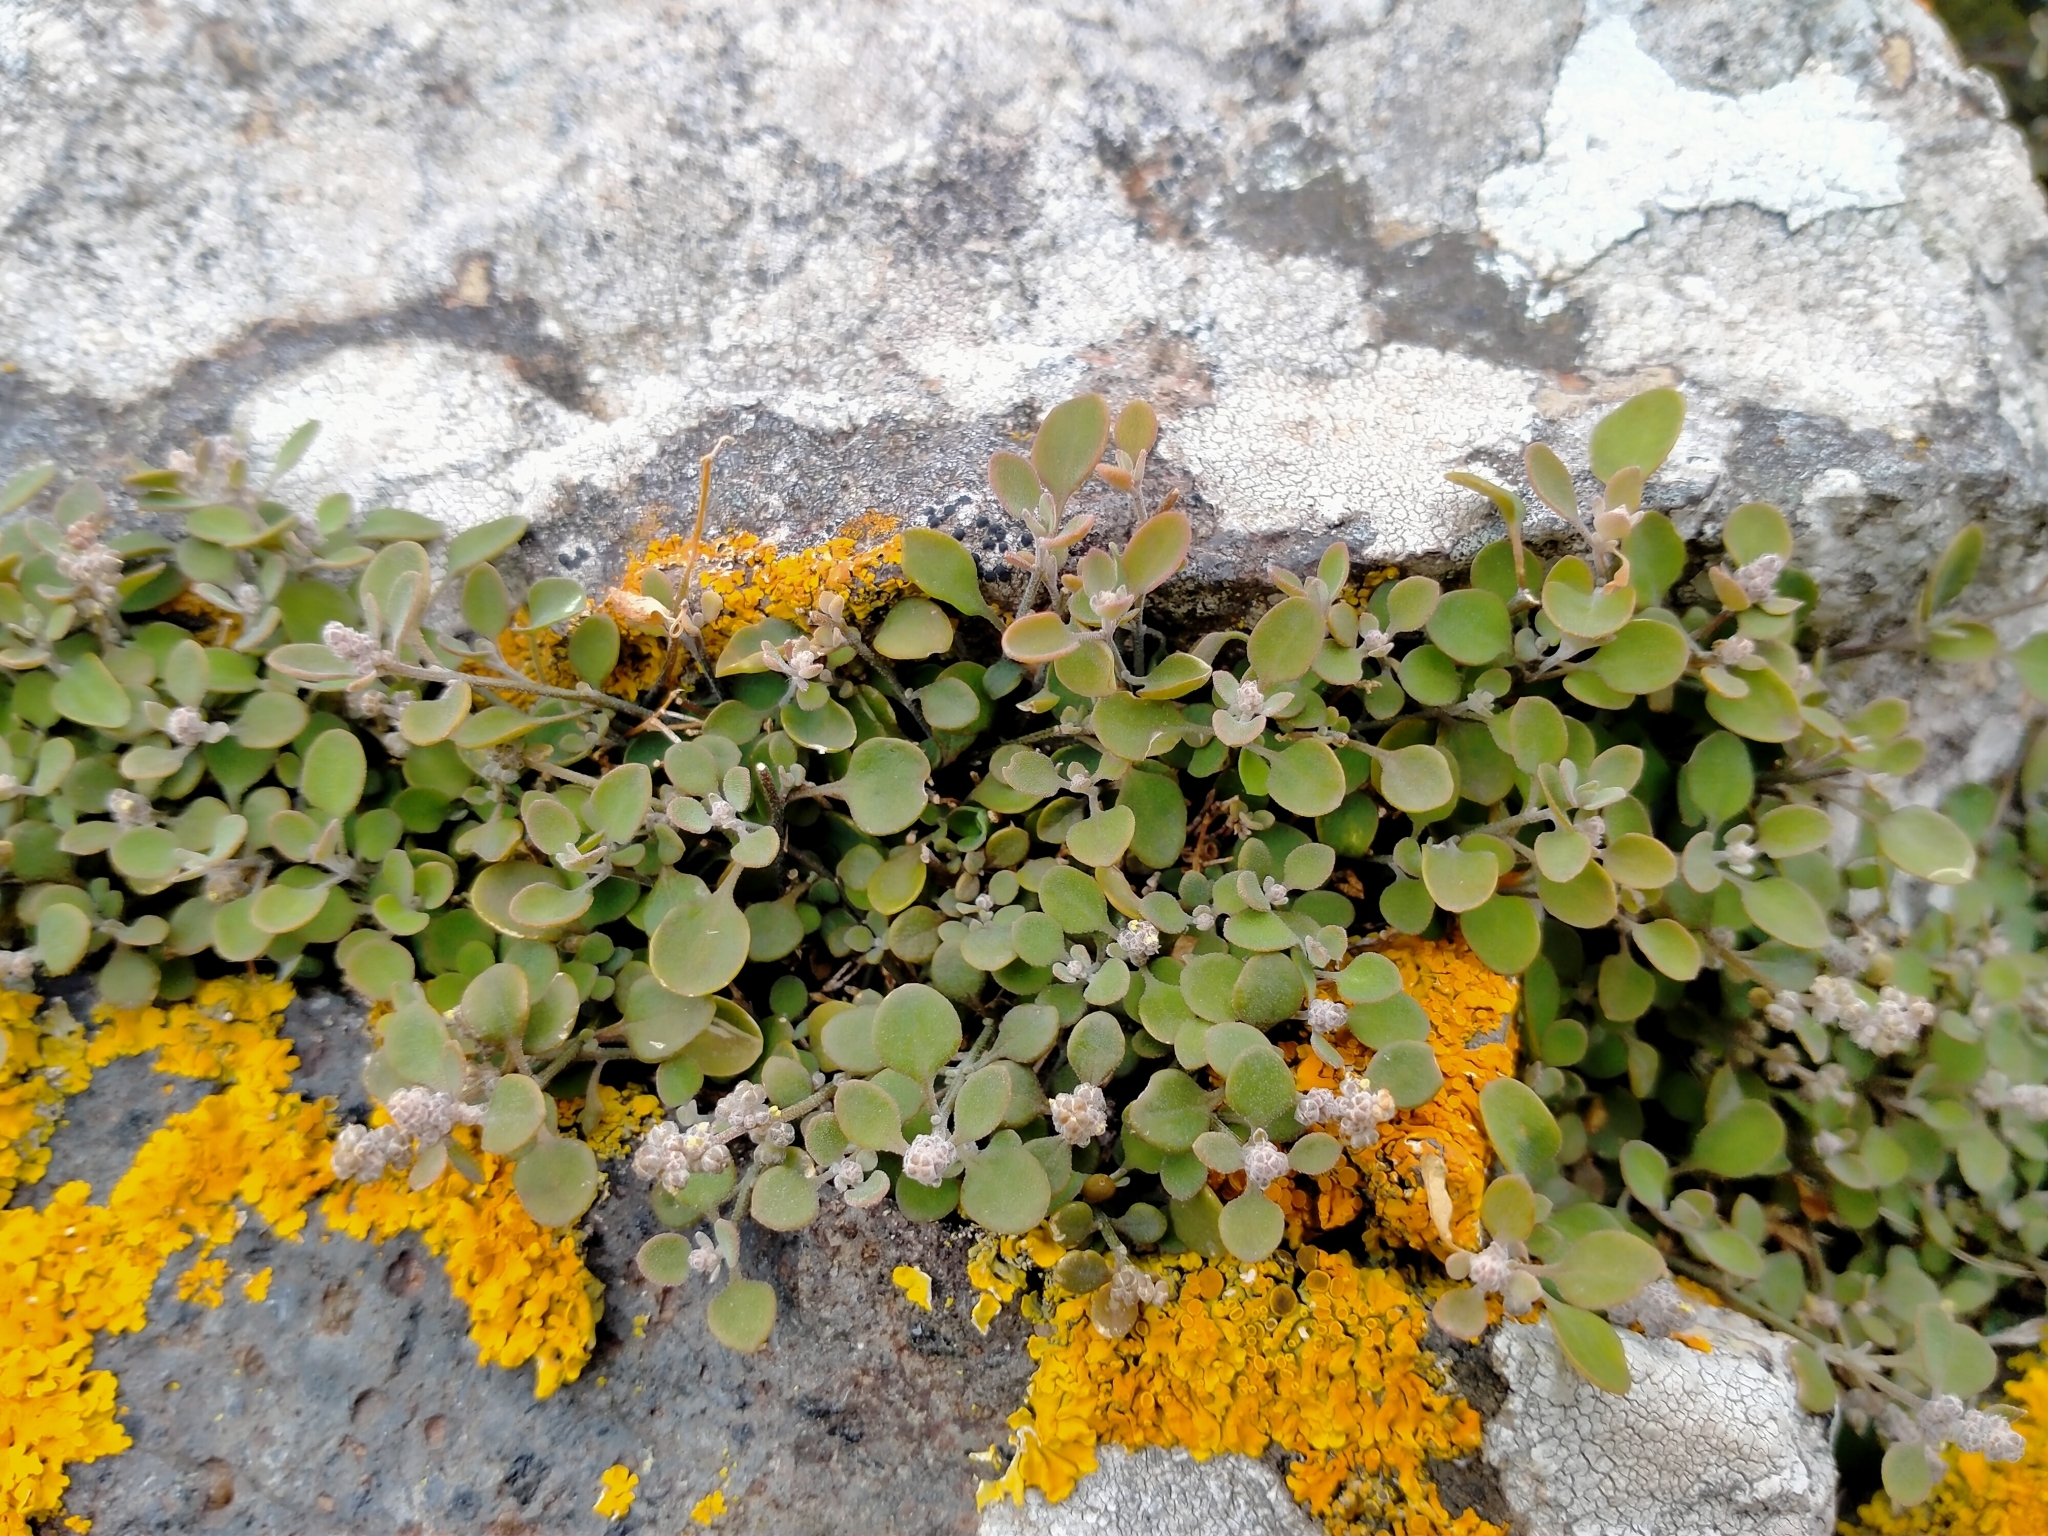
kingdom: Plantae
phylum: Tracheophyta
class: Magnoliopsida
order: Caryophyllales
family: Amaranthaceae
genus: Chenopodium
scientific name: Chenopodium allanii
